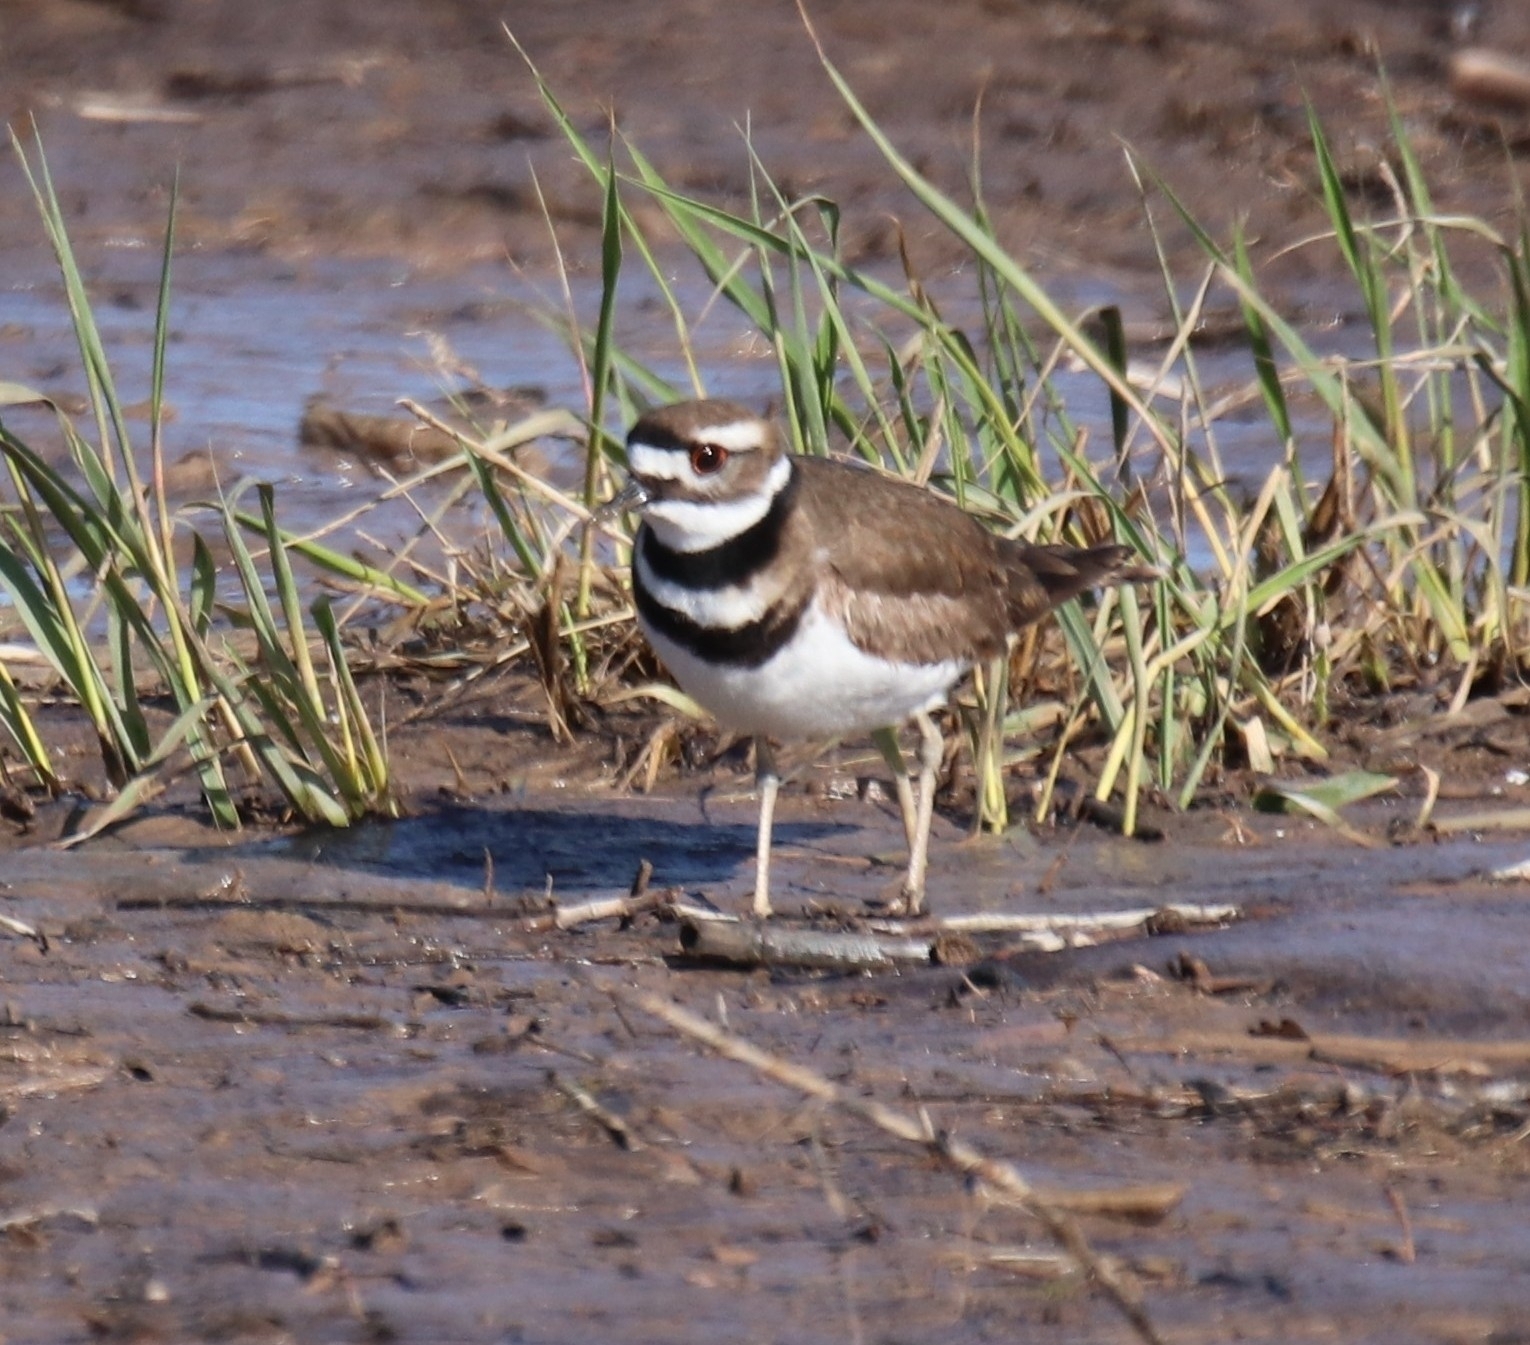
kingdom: Animalia
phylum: Chordata
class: Aves
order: Charadriiformes
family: Charadriidae
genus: Charadrius
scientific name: Charadrius vociferus
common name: Killdeer
